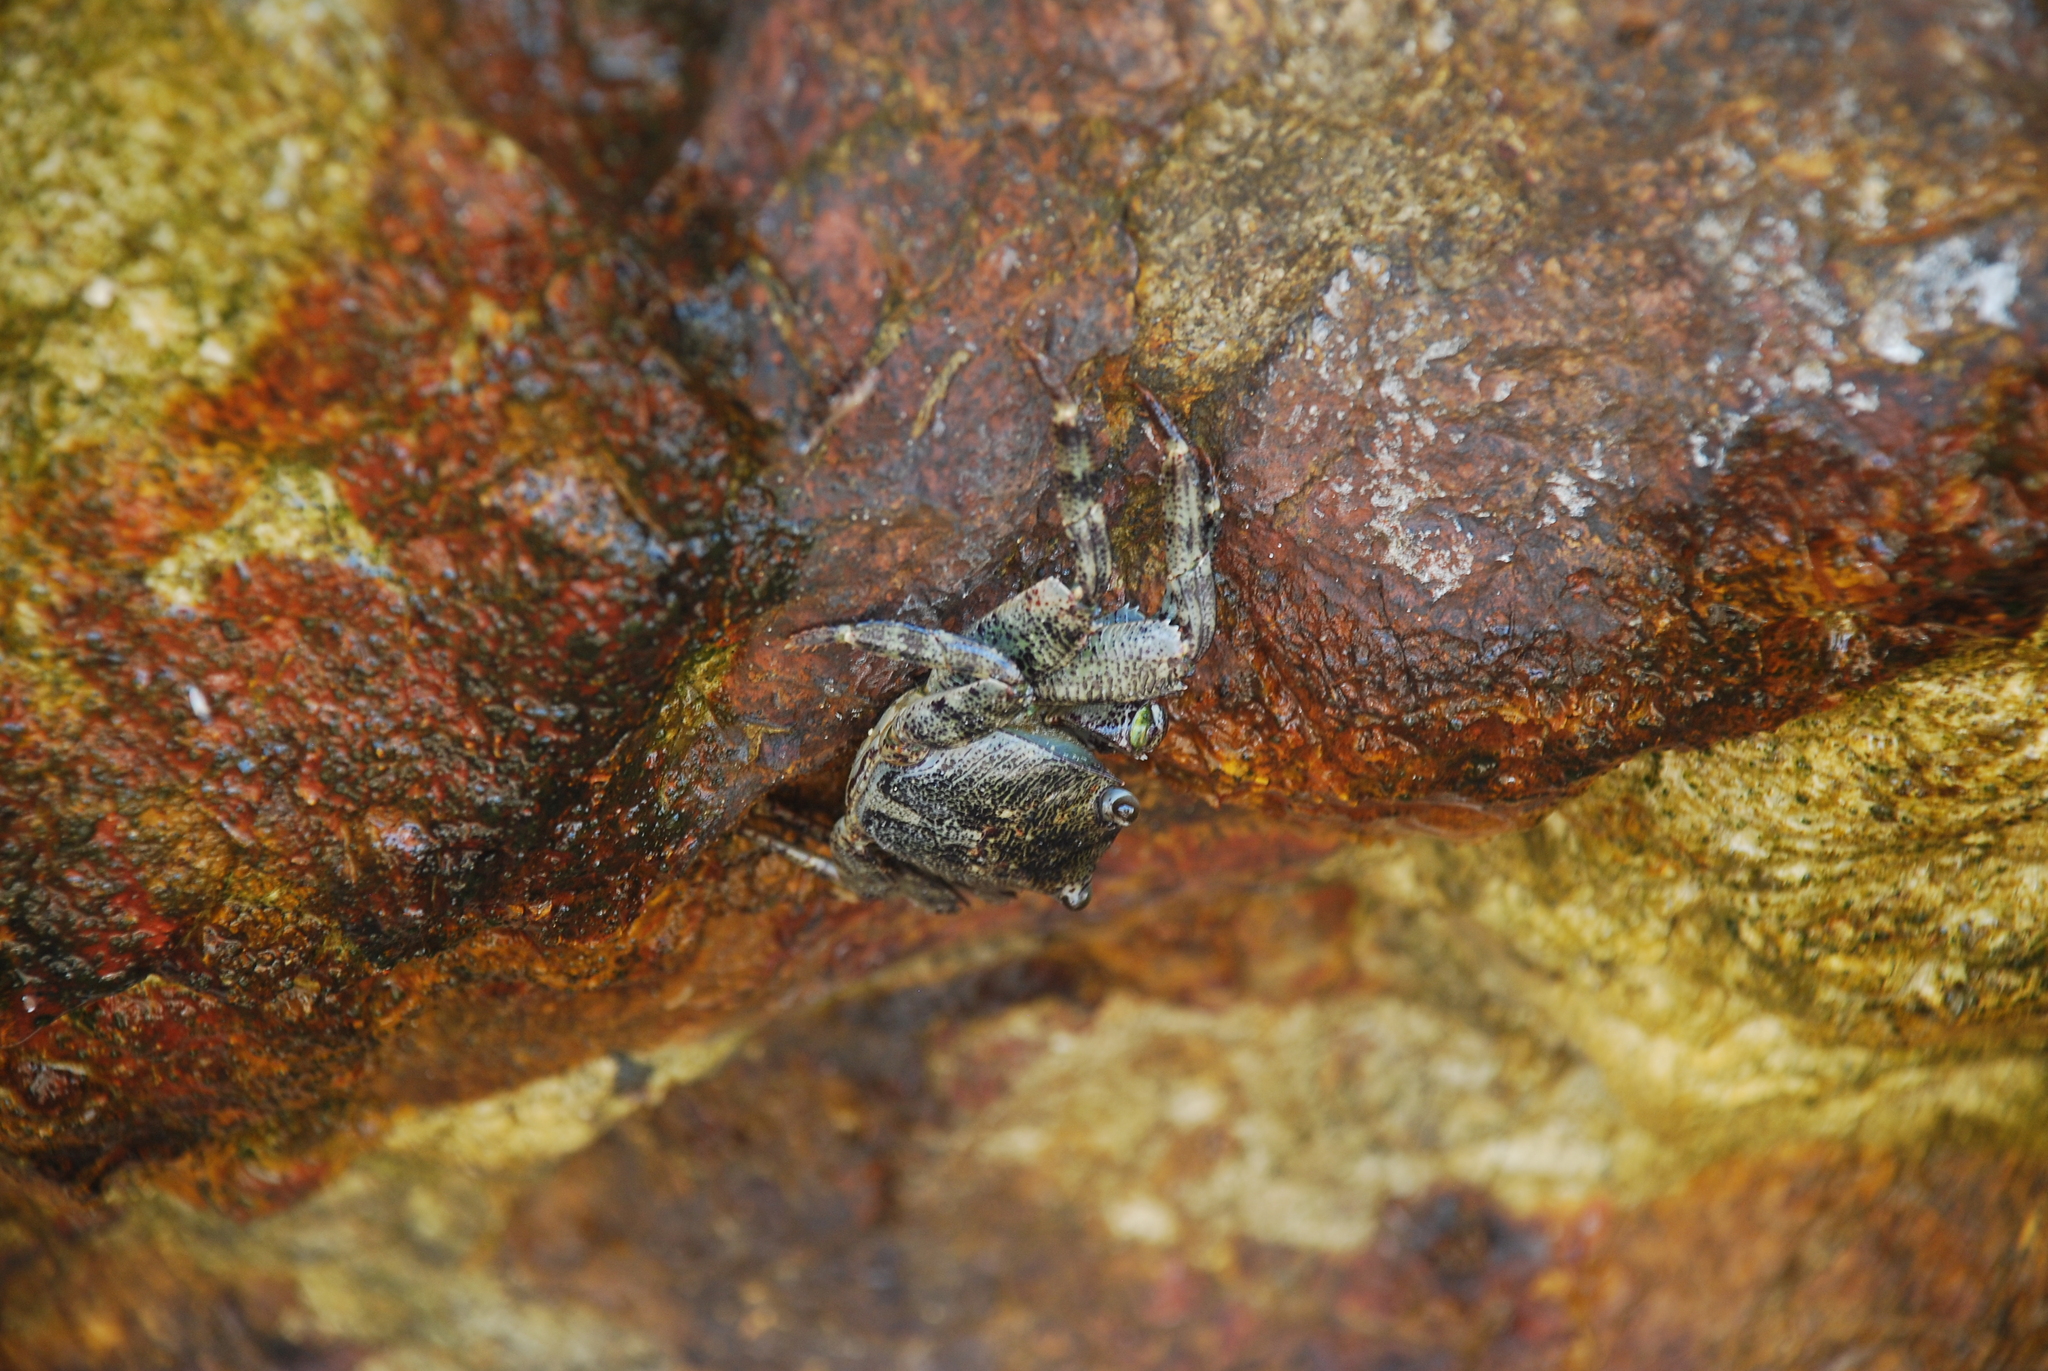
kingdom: Animalia
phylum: Arthropoda
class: Malacostraca
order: Decapoda
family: Grapsidae
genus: Leptograpsus
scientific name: Leptograpsus variegatus
